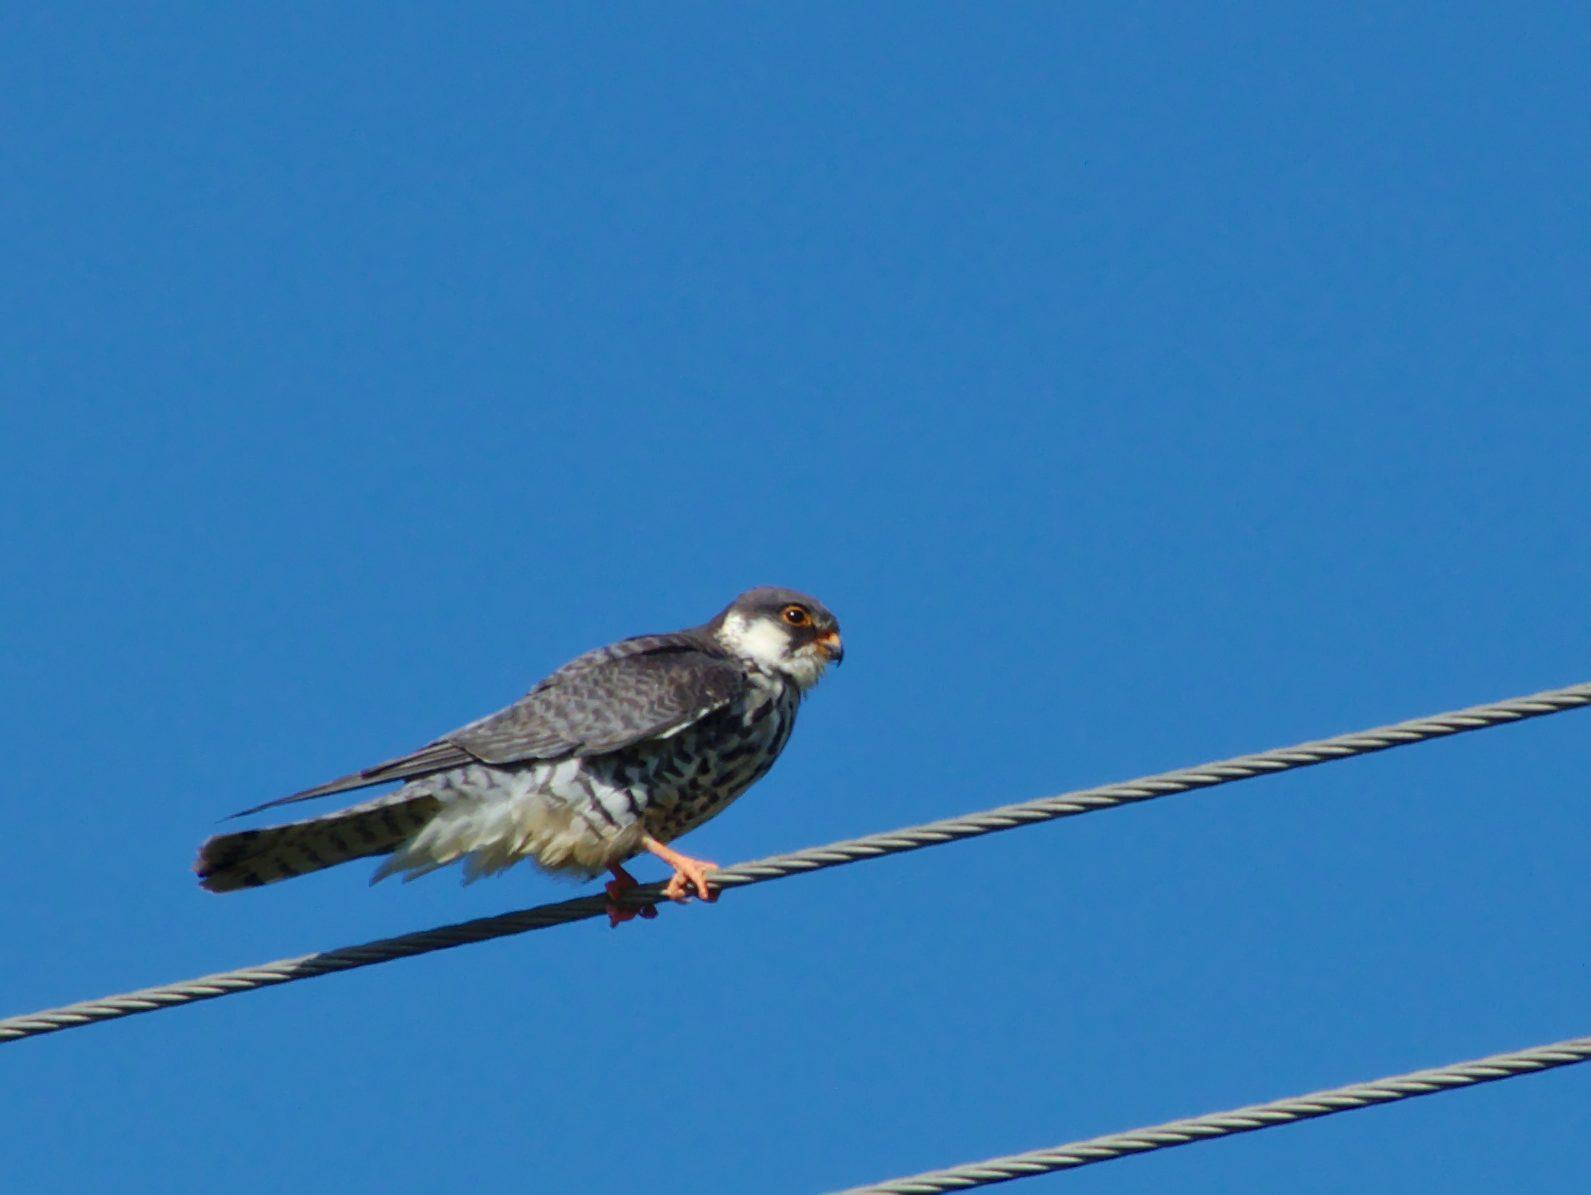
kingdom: Animalia
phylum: Chordata
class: Aves
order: Falconiformes
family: Falconidae
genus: Falco
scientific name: Falco amurensis
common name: Amur falcon
